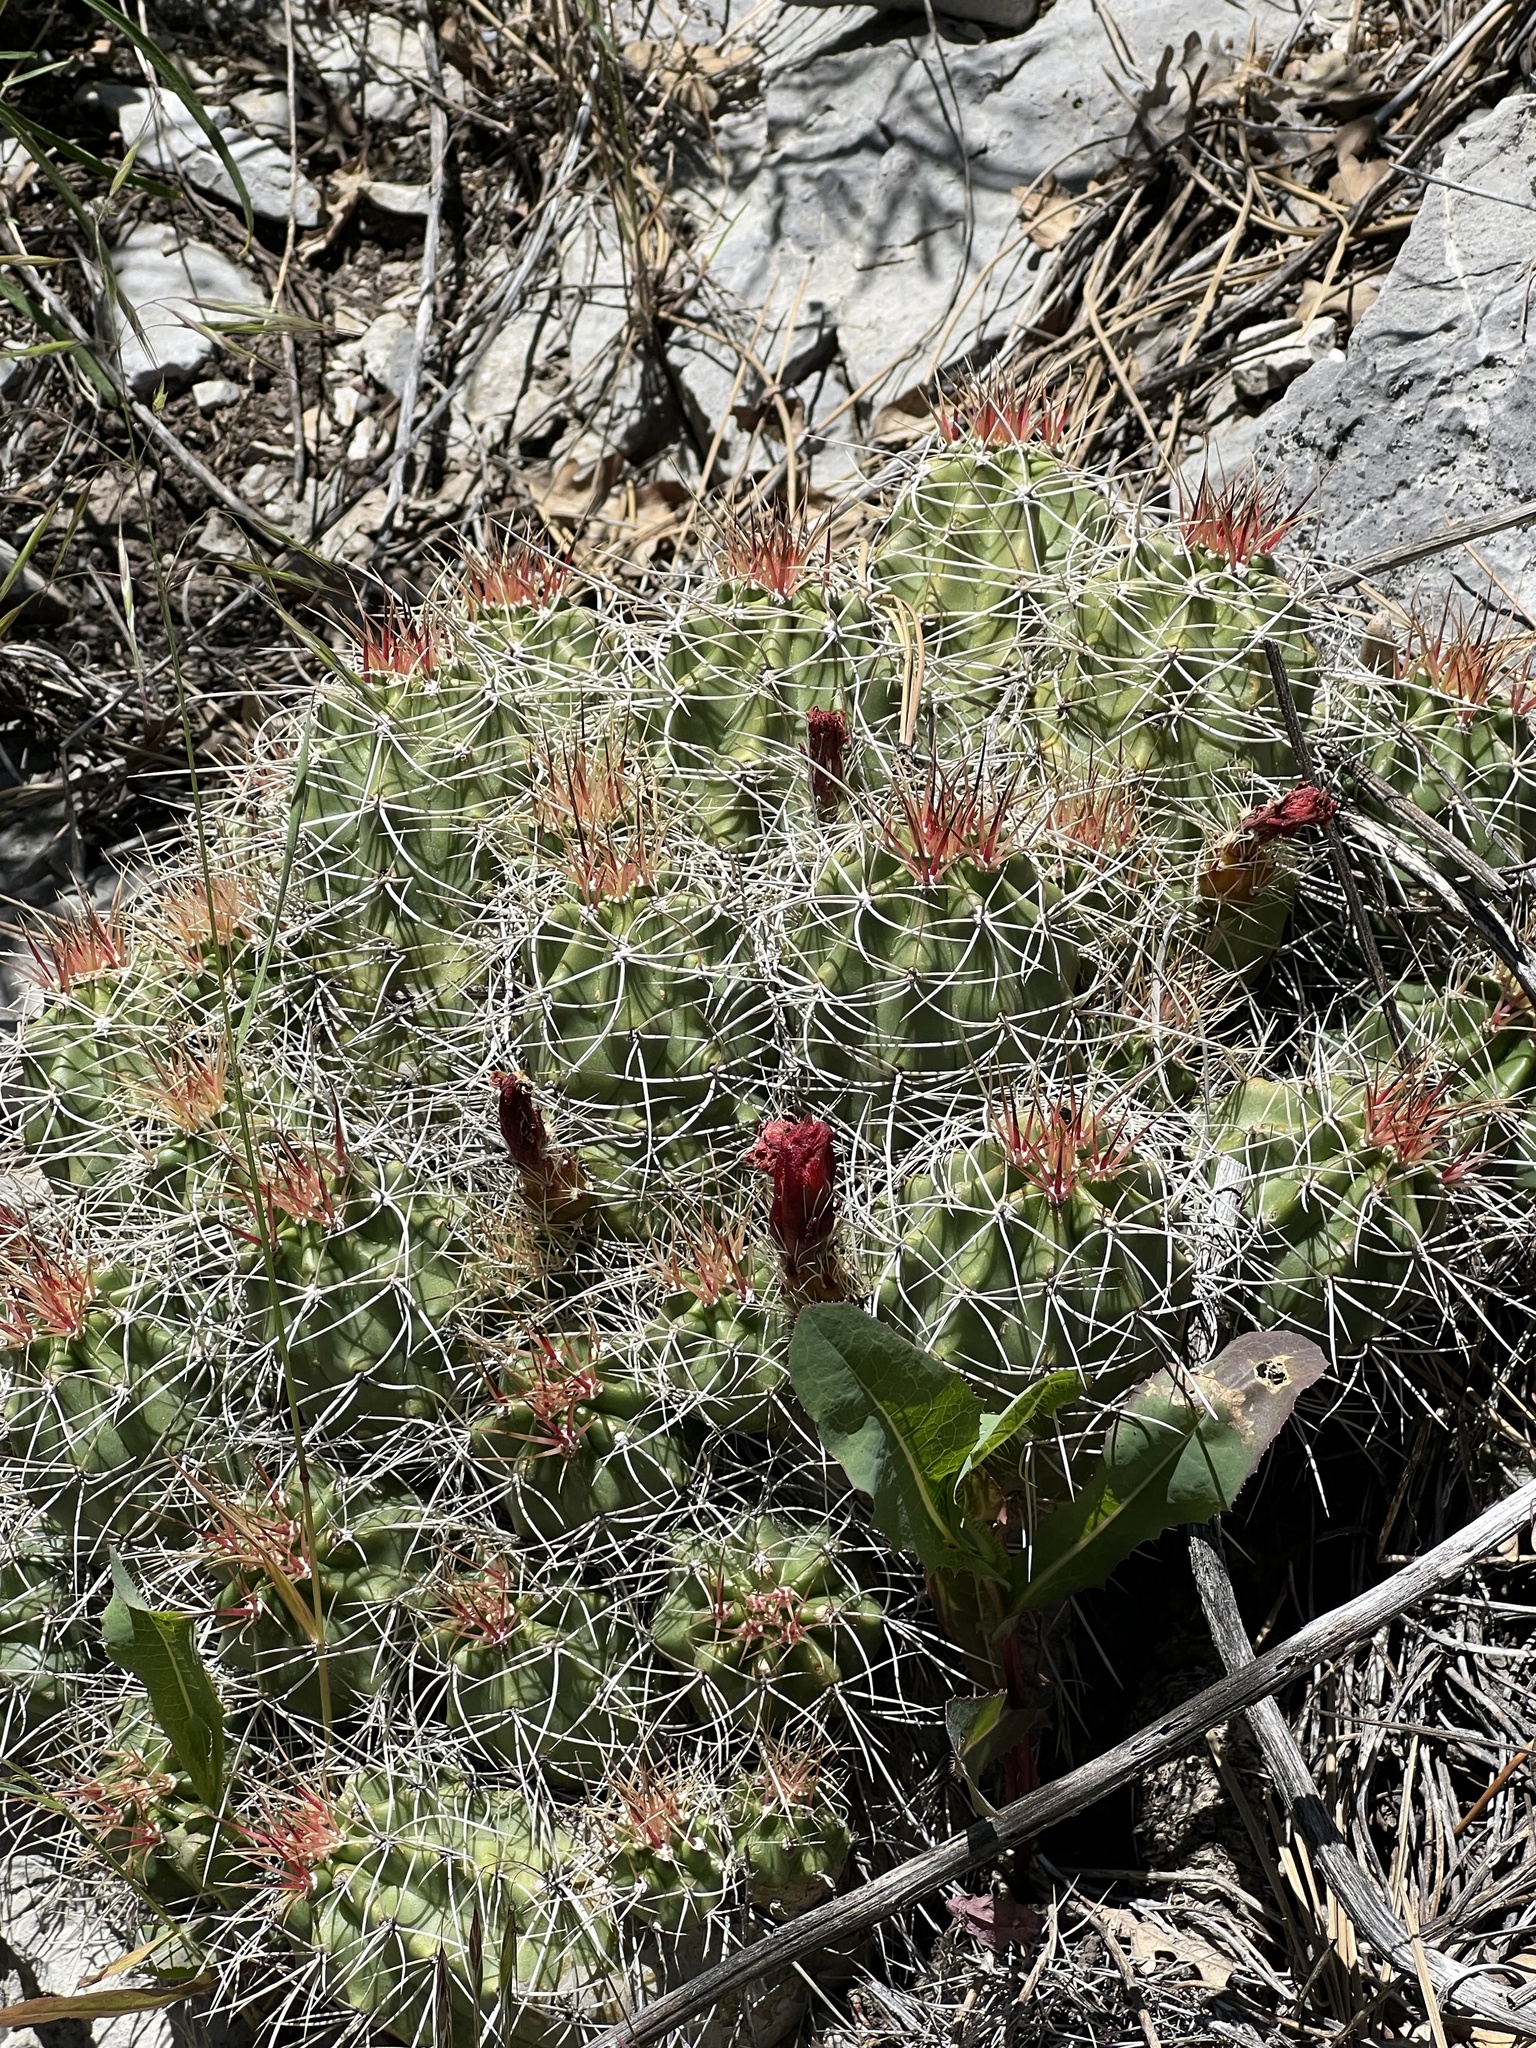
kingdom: Plantae
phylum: Tracheophyta
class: Magnoliopsida
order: Caryophyllales
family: Cactaceae
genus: Echinocereus
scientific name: Echinocereus triglochidiatus
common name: Claretcup hedgehog
